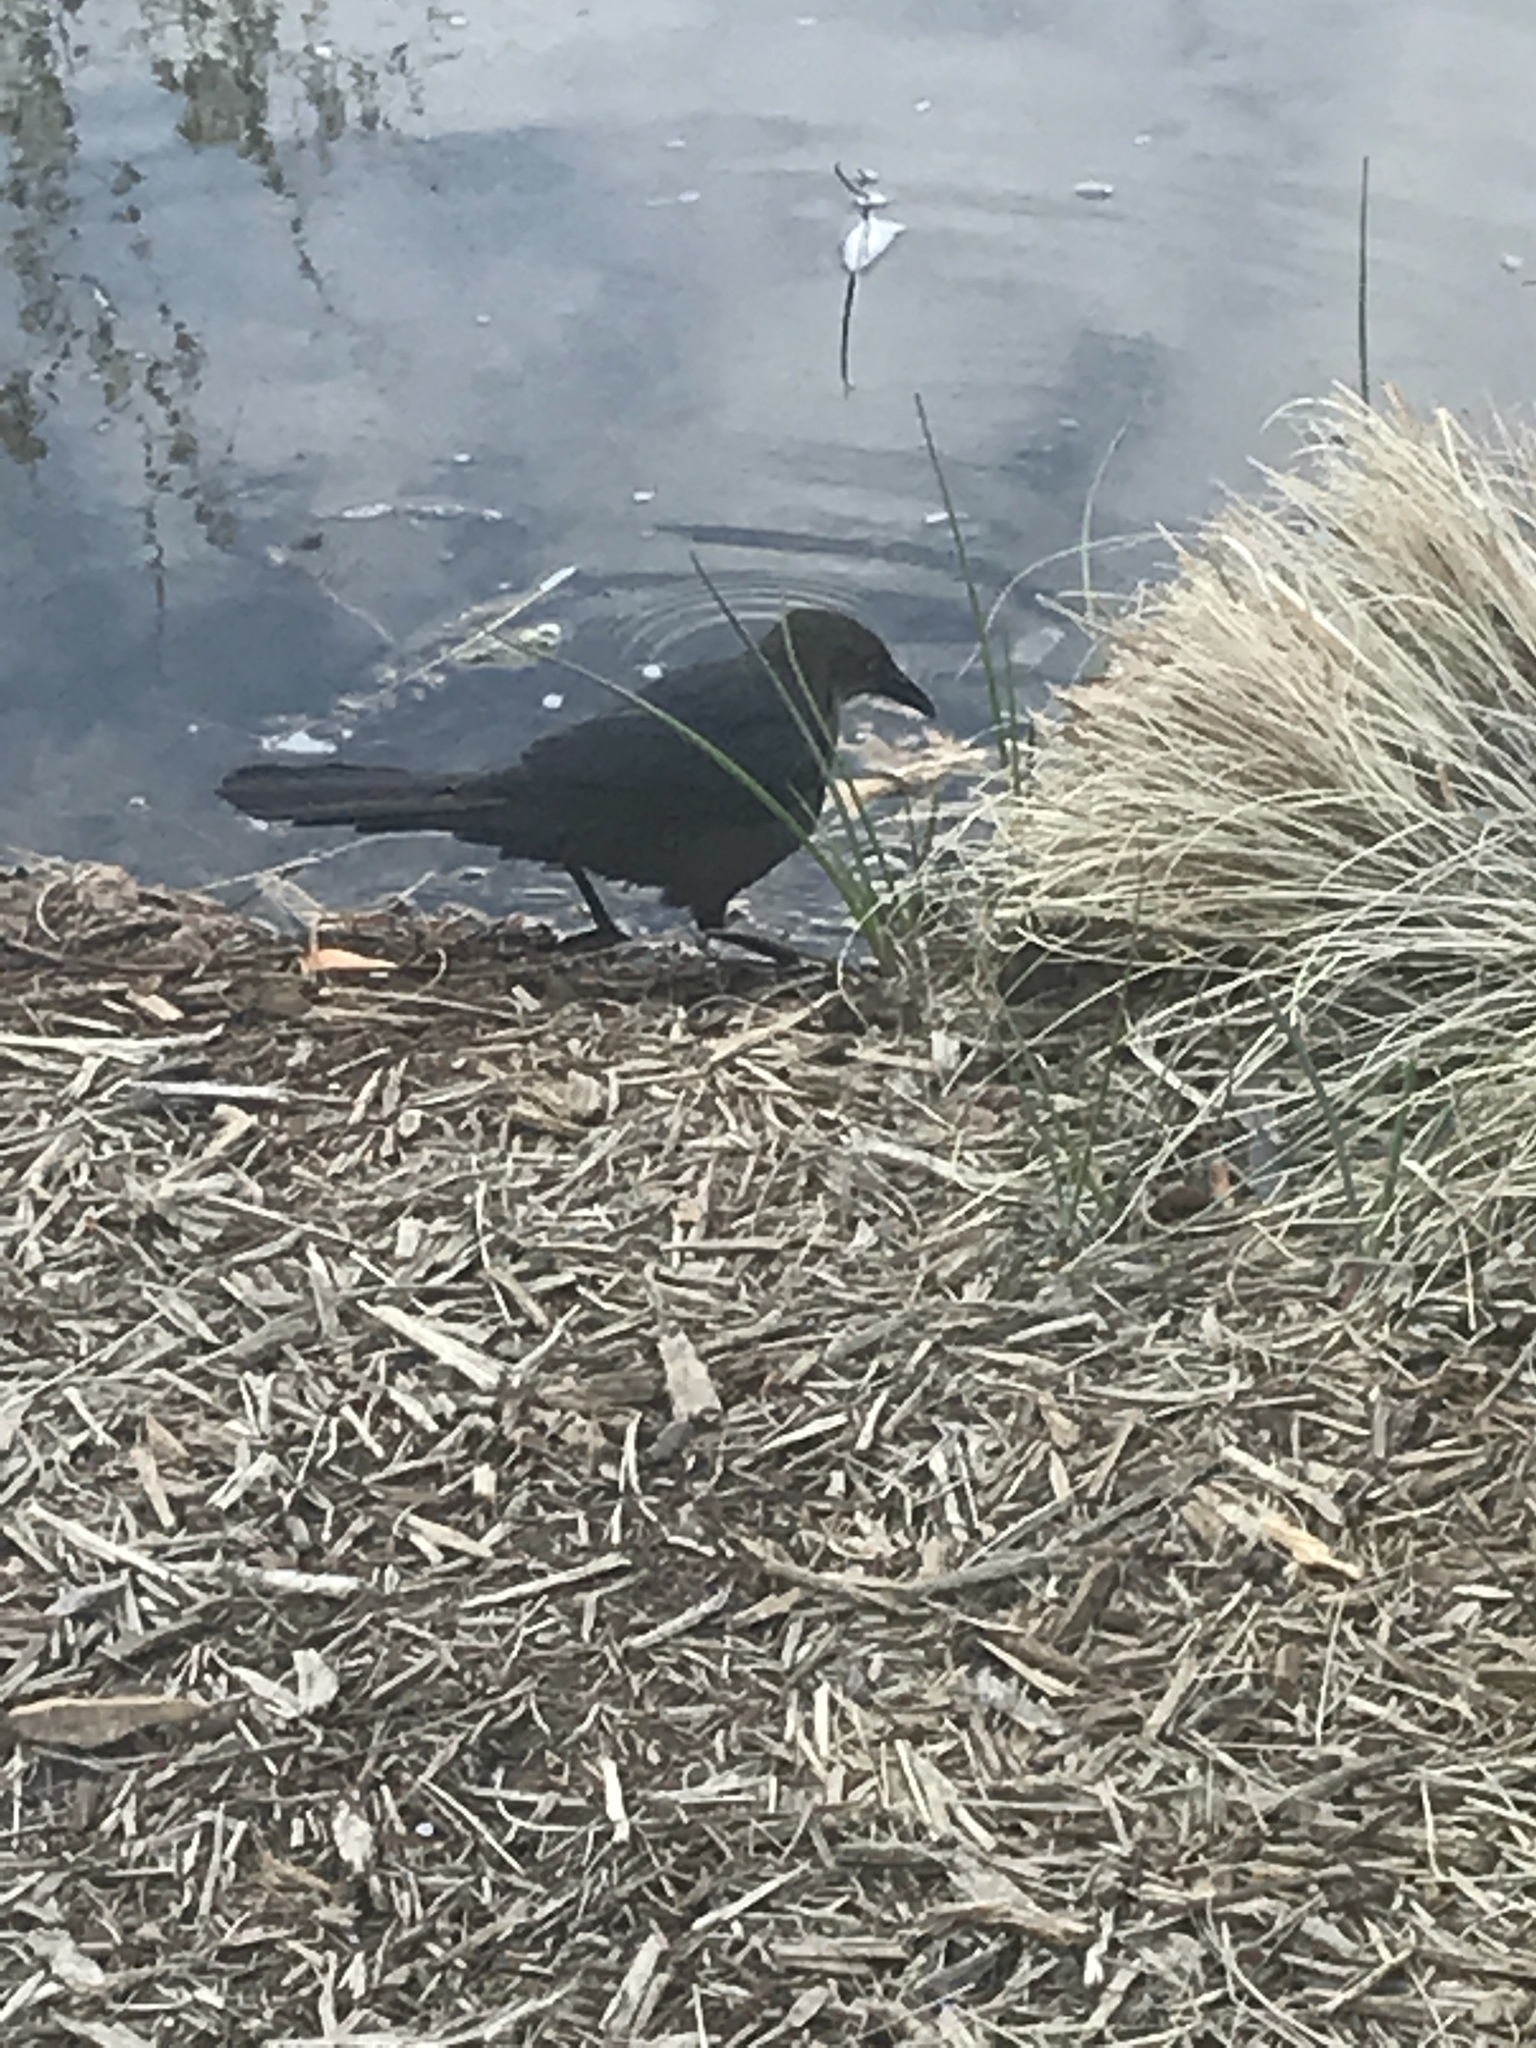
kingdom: Animalia
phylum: Chordata
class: Aves
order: Passeriformes
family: Icteridae
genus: Quiscalus
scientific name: Quiscalus mexicanus
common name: Great-tailed grackle
